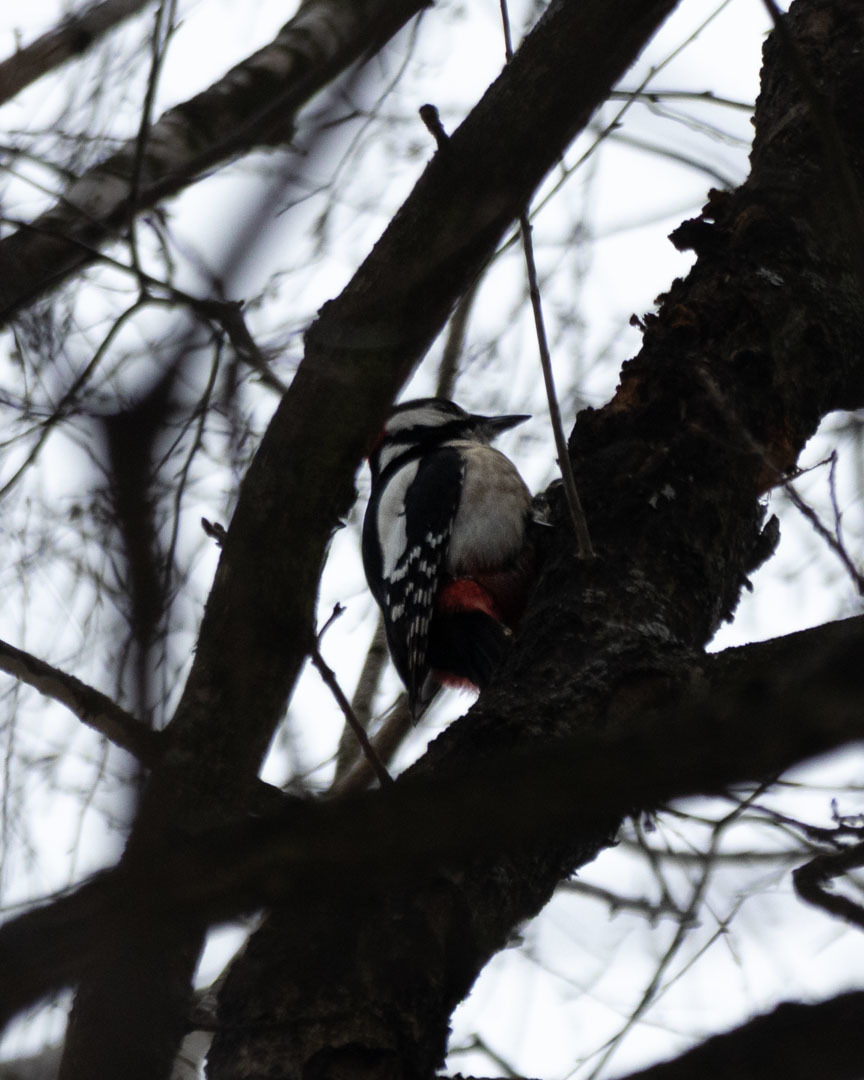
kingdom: Animalia
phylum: Chordata
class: Aves
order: Piciformes
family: Picidae
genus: Dendrocopos
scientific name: Dendrocopos major
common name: Great spotted woodpecker
